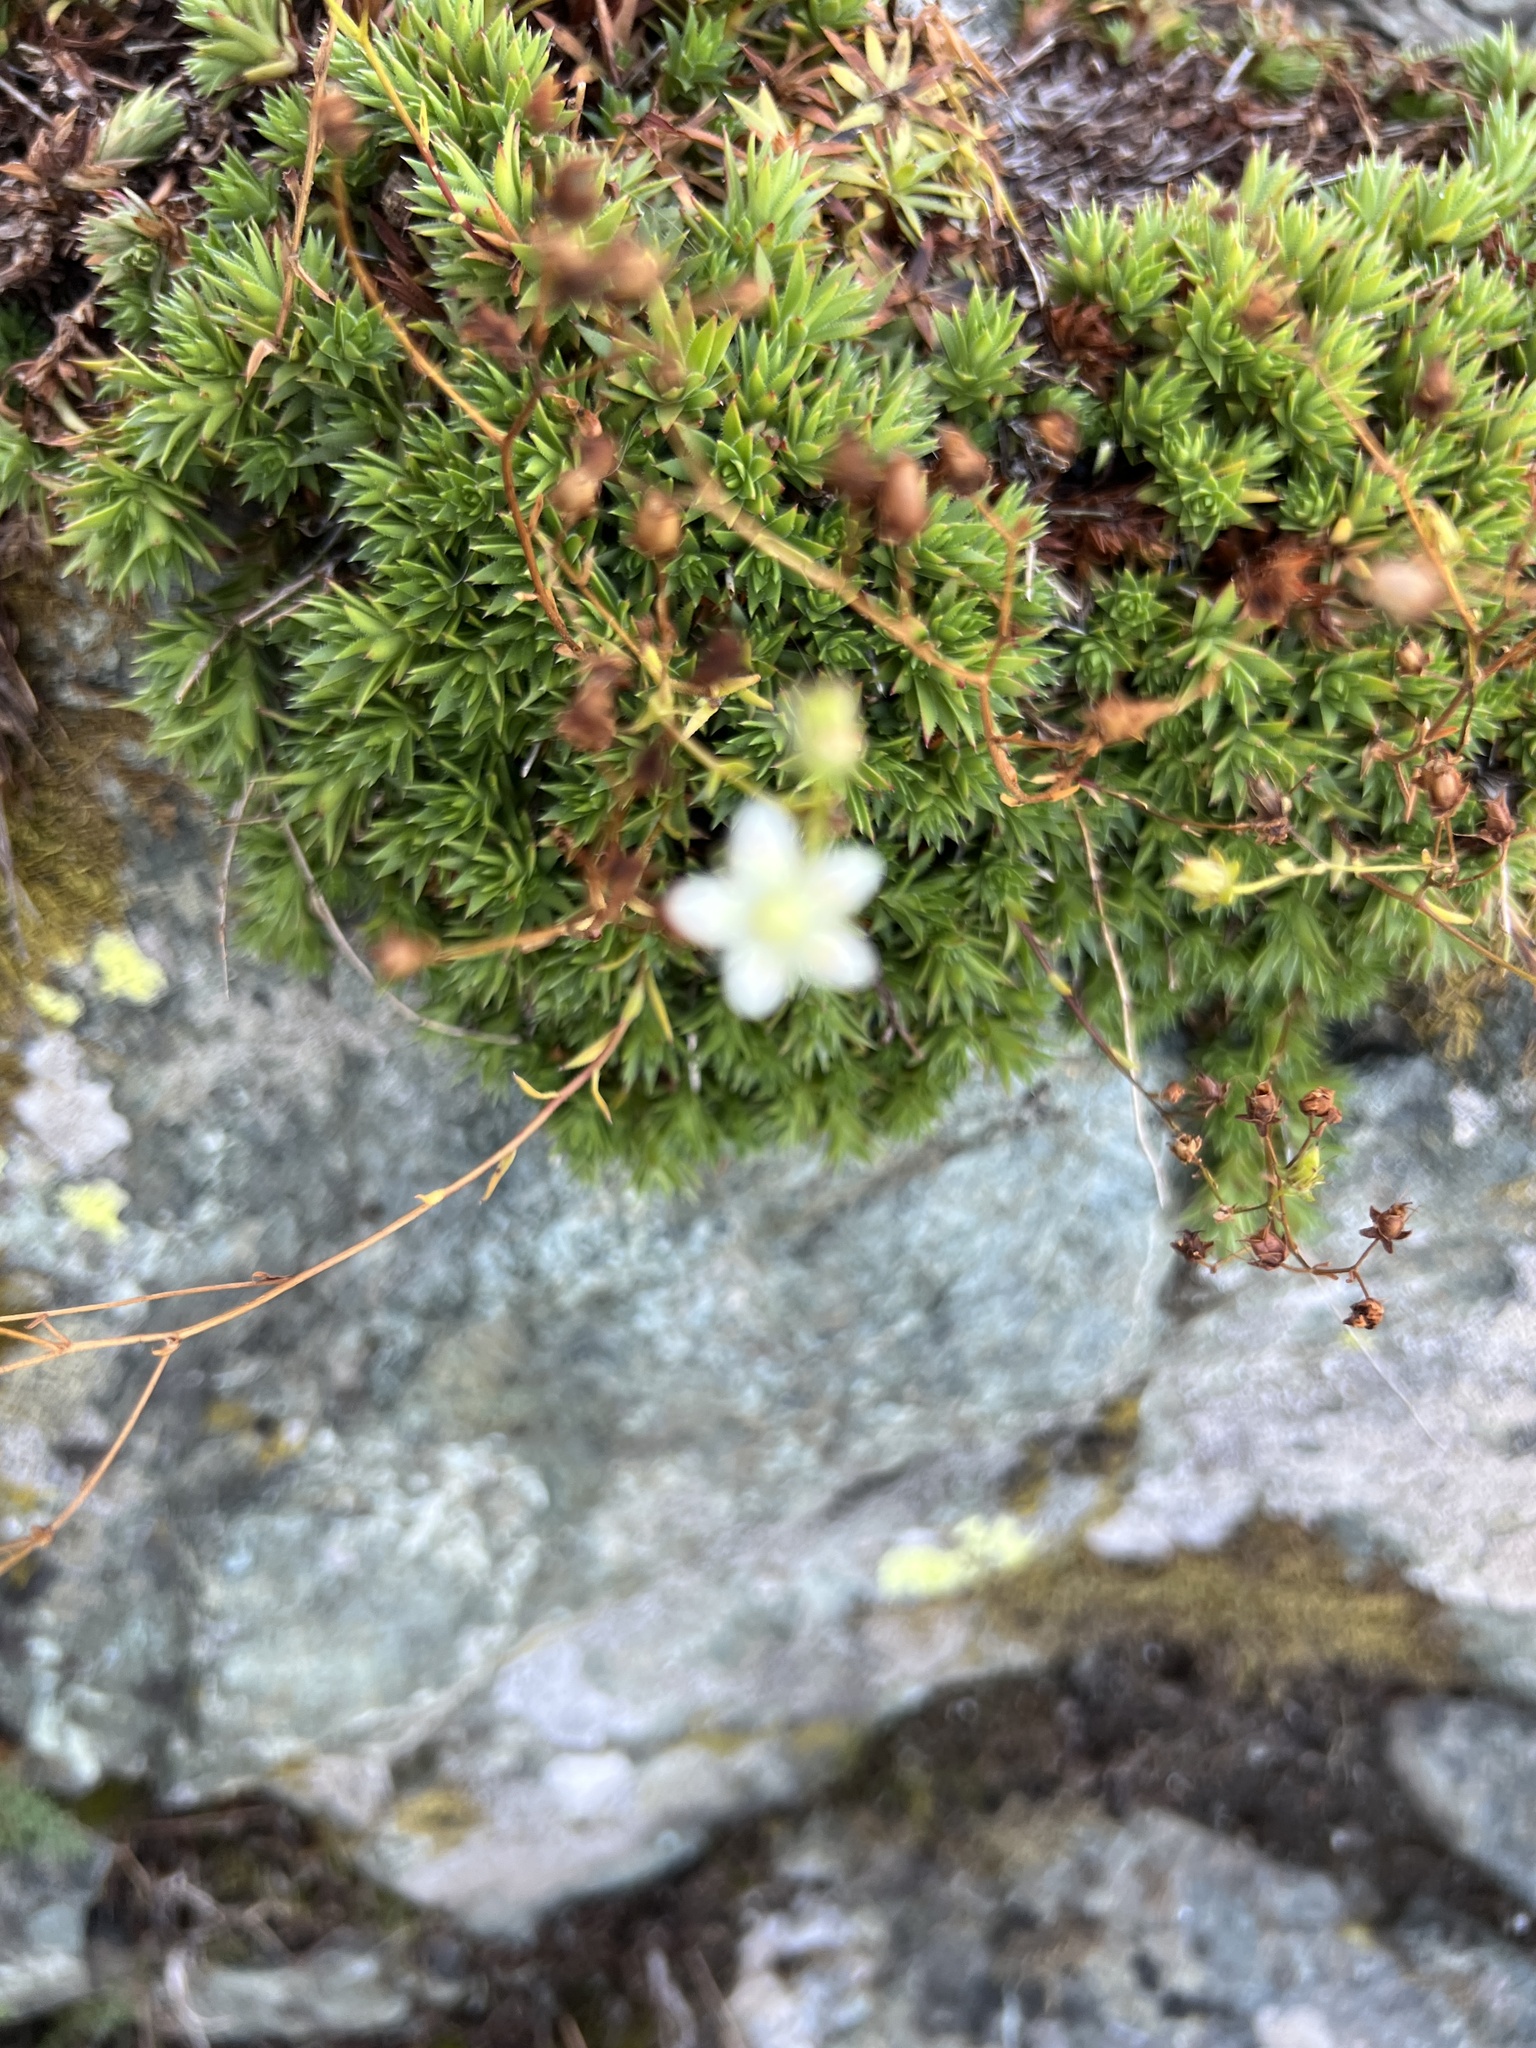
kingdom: Plantae
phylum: Tracheophyta
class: Magnoliopsida
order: Saxifragales
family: Saxifragaceae
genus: Saxifraga
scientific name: Saxifraga bronchialis
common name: Matted saxifrage
